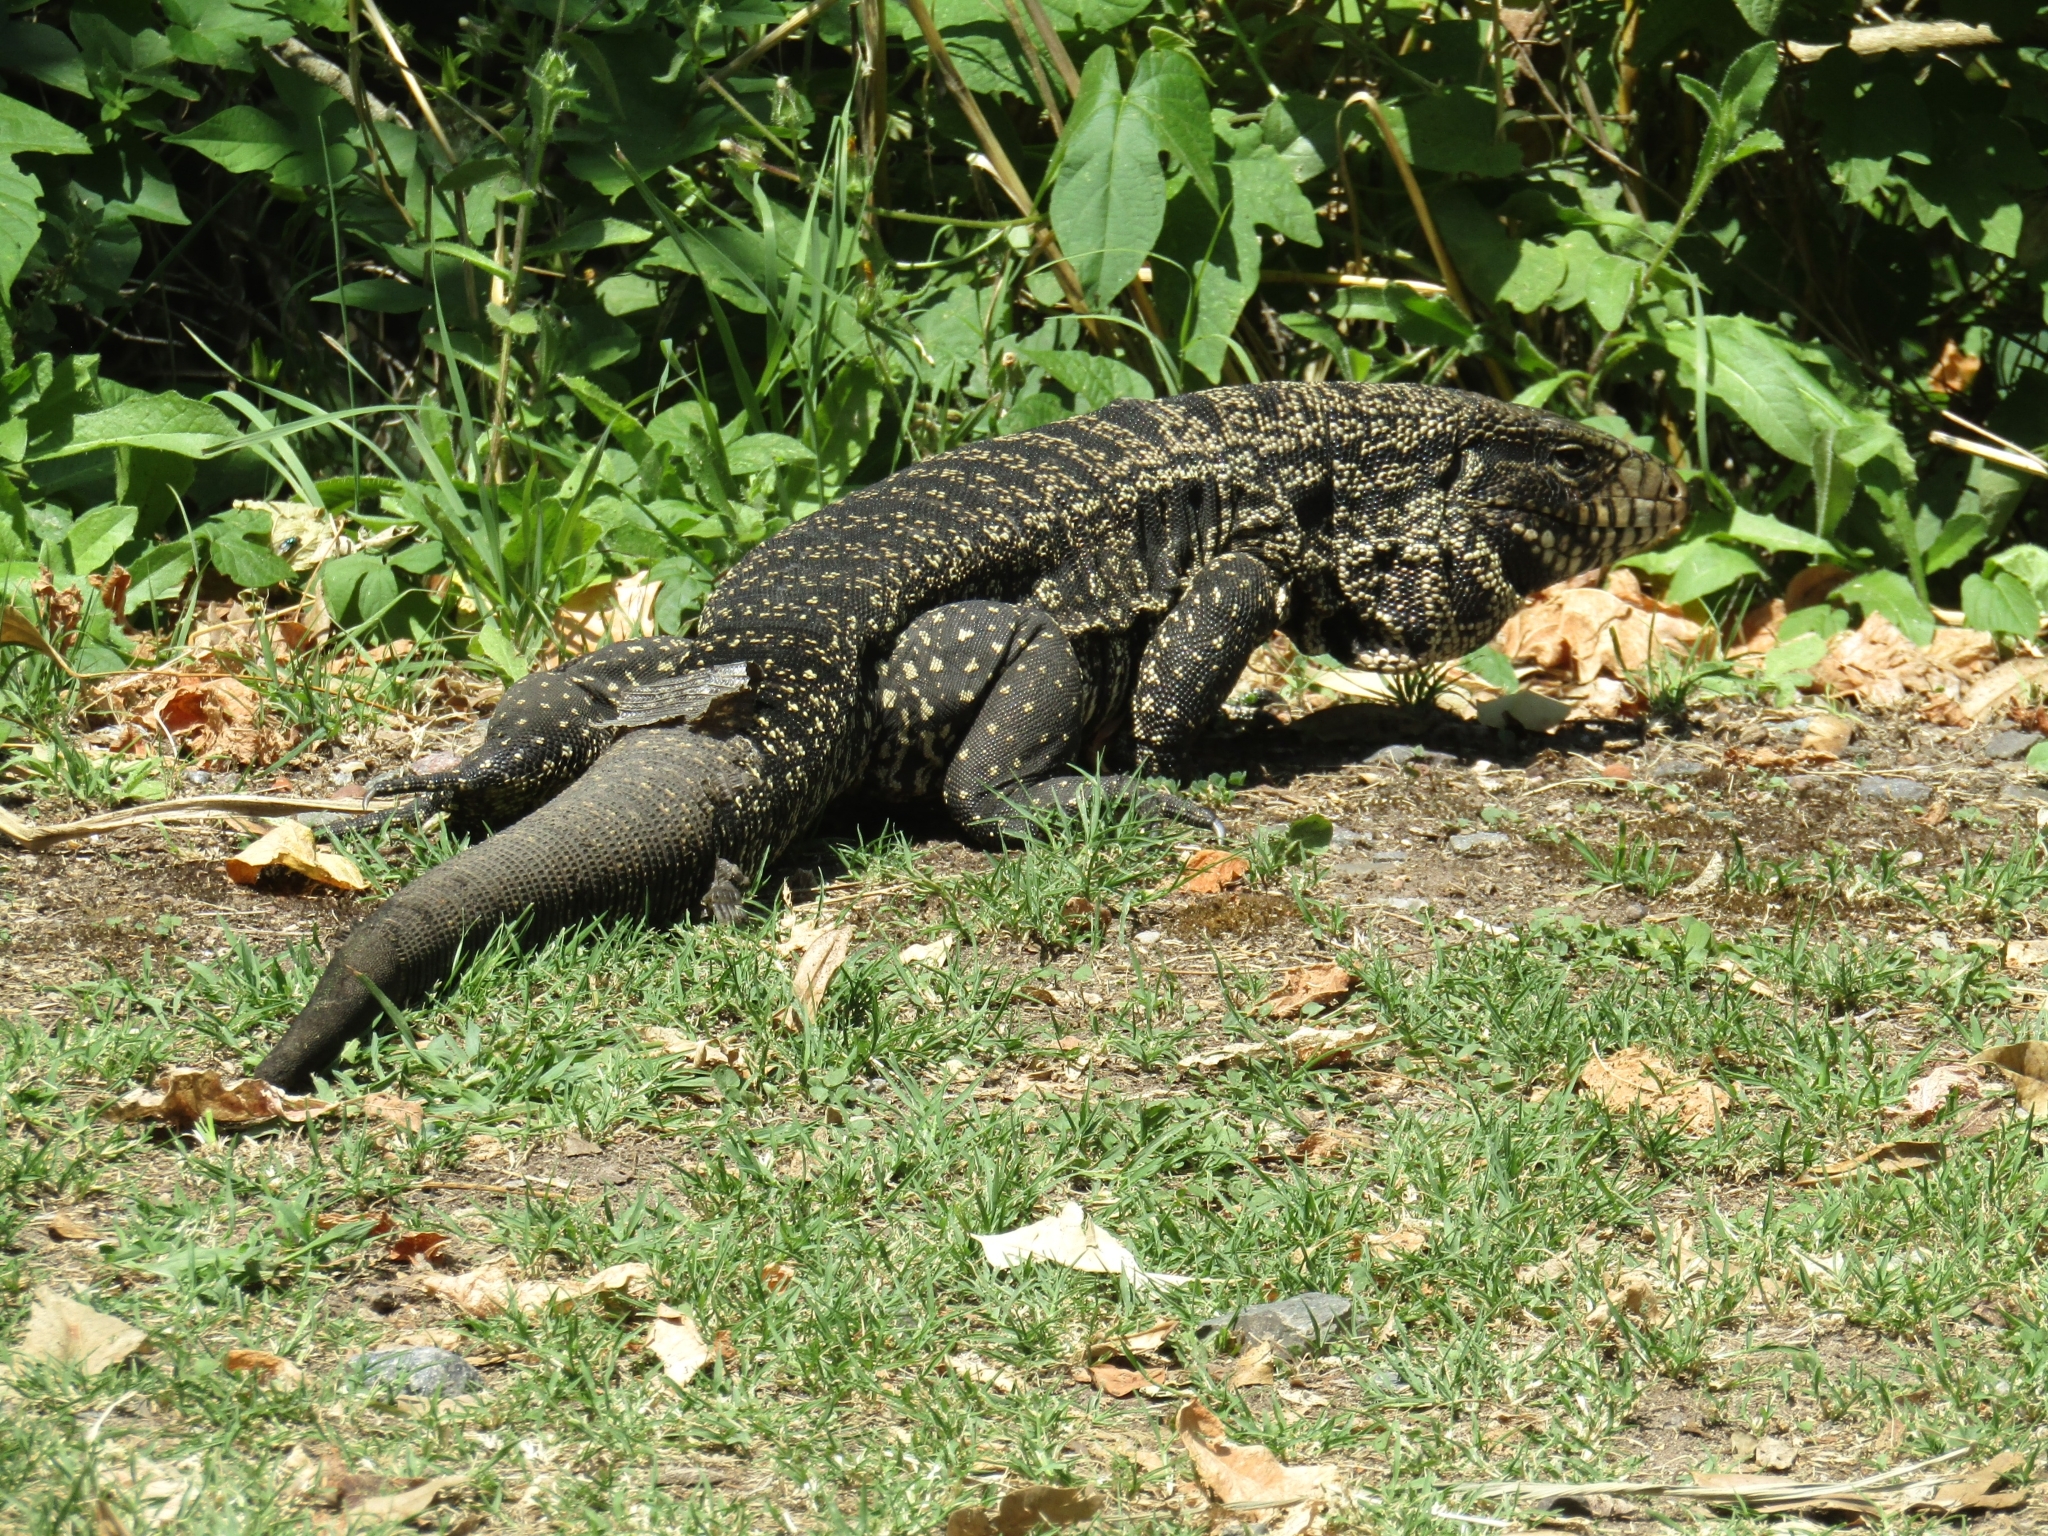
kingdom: Animalia
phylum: Chordata
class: Squamata
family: Teiidae
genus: Salvator
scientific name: Salvator merianae
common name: Argentine black and white tegu
